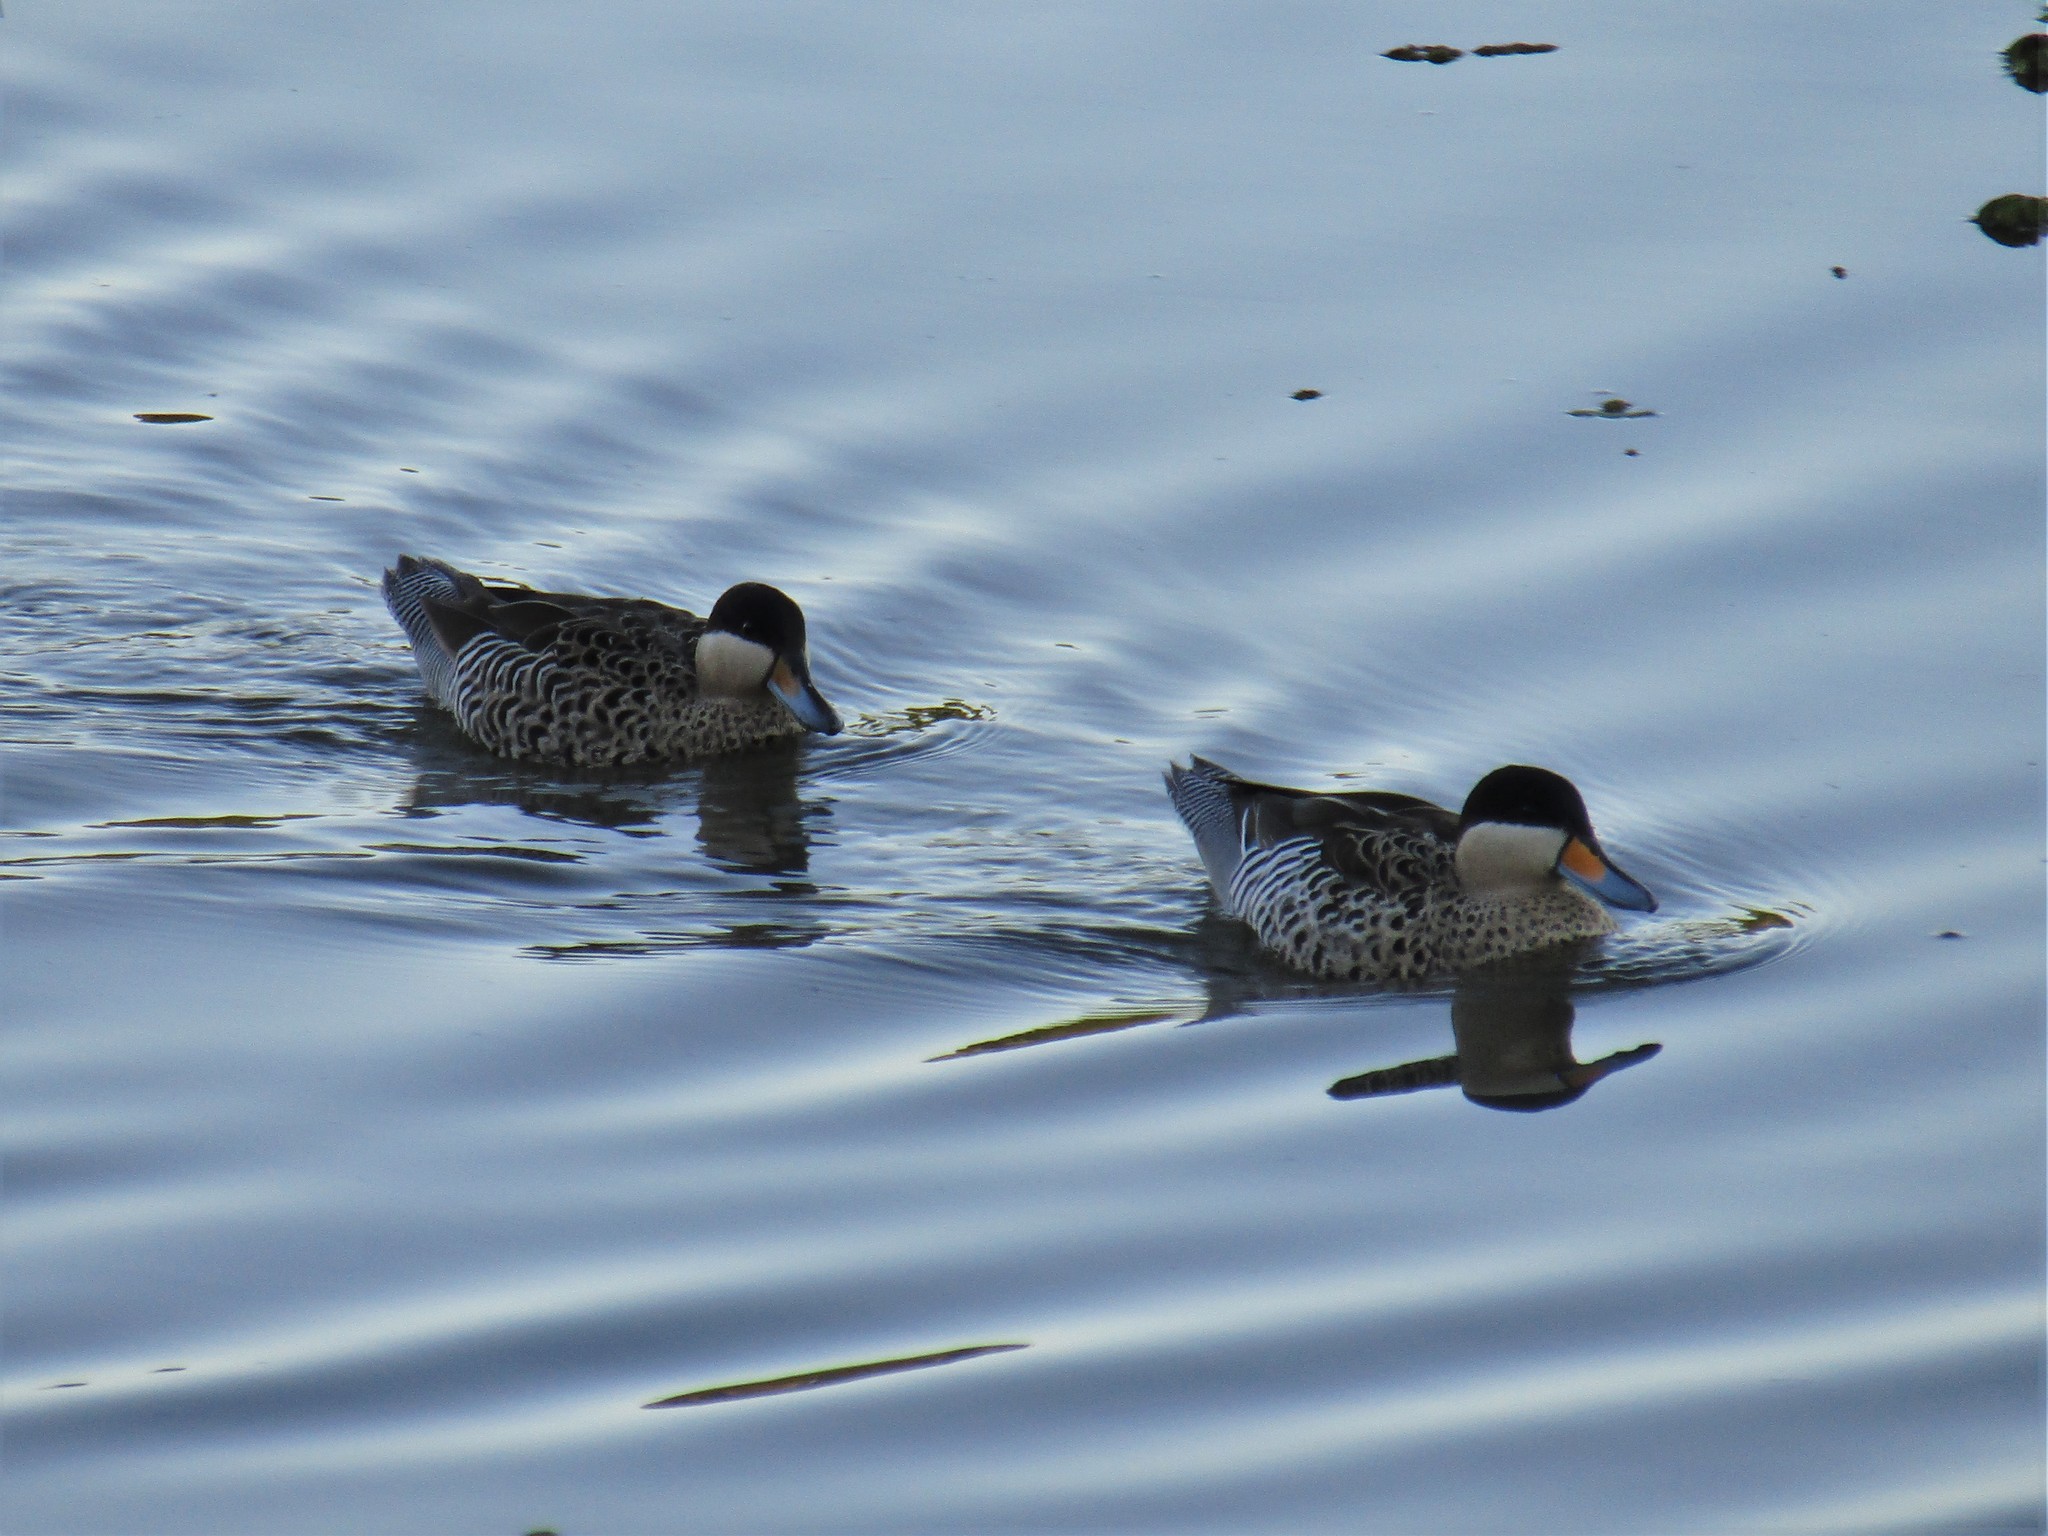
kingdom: Animalia
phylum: Chordata
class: Aves
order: Anseriformes
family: Anatidae
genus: Spatula
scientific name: Spatula versicolor
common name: Silver teal
